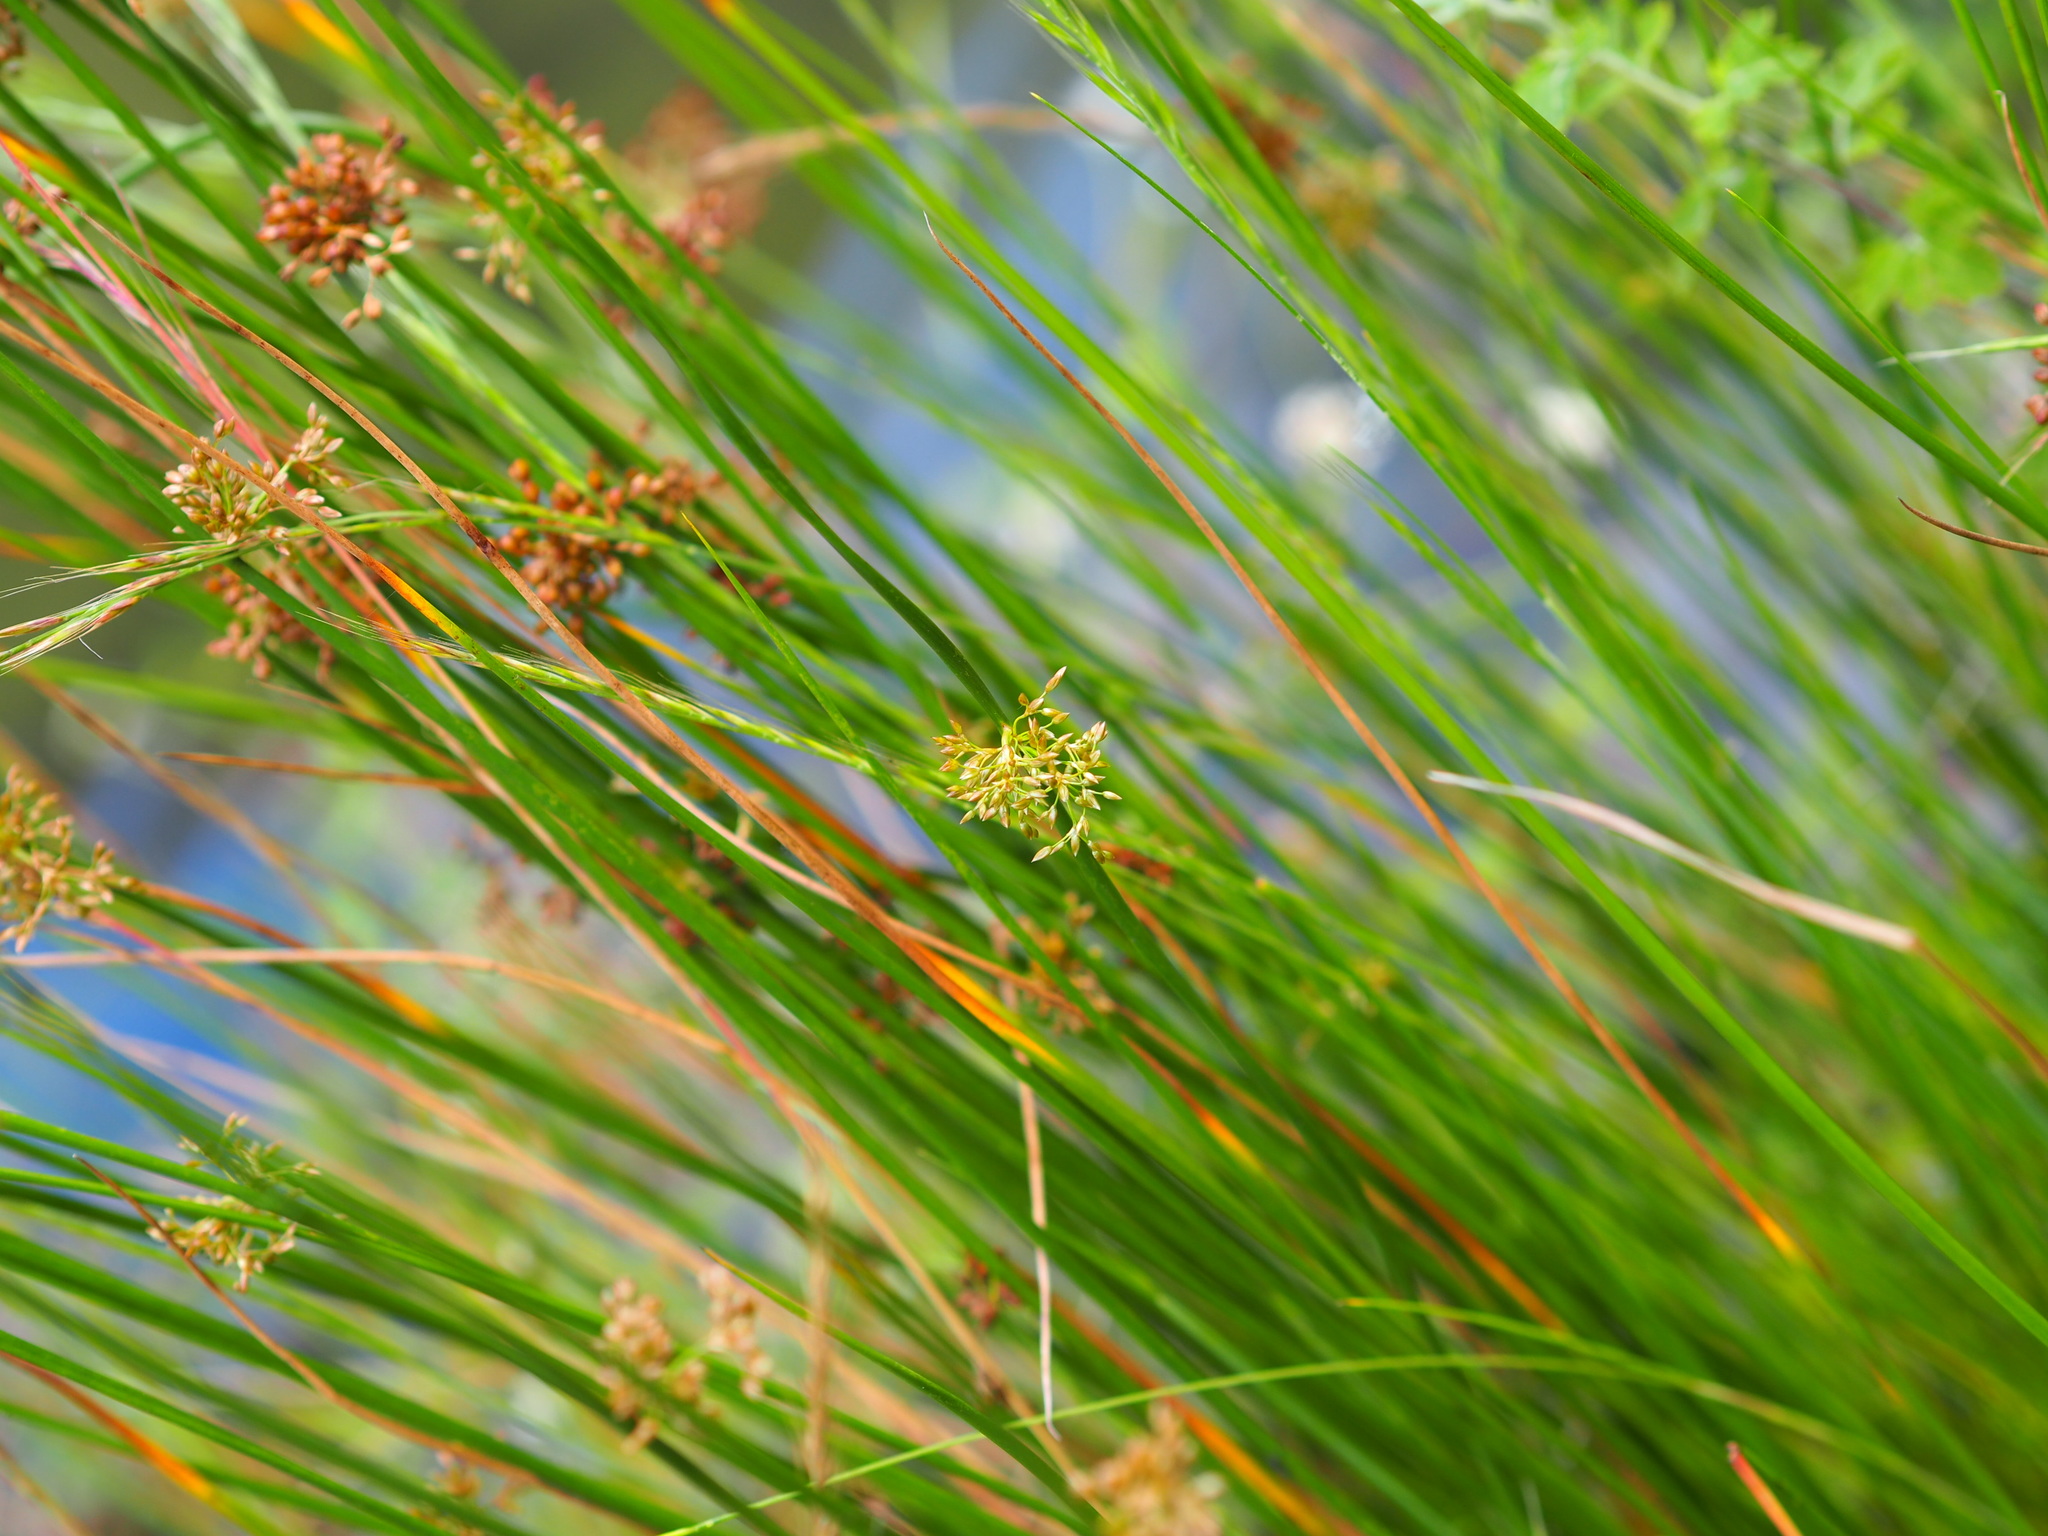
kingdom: Plantae
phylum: Tracheophyta
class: Liliopsida
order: Poales
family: Juncaceae
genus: Juncus
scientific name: Juncus effusus
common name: Soft rush
